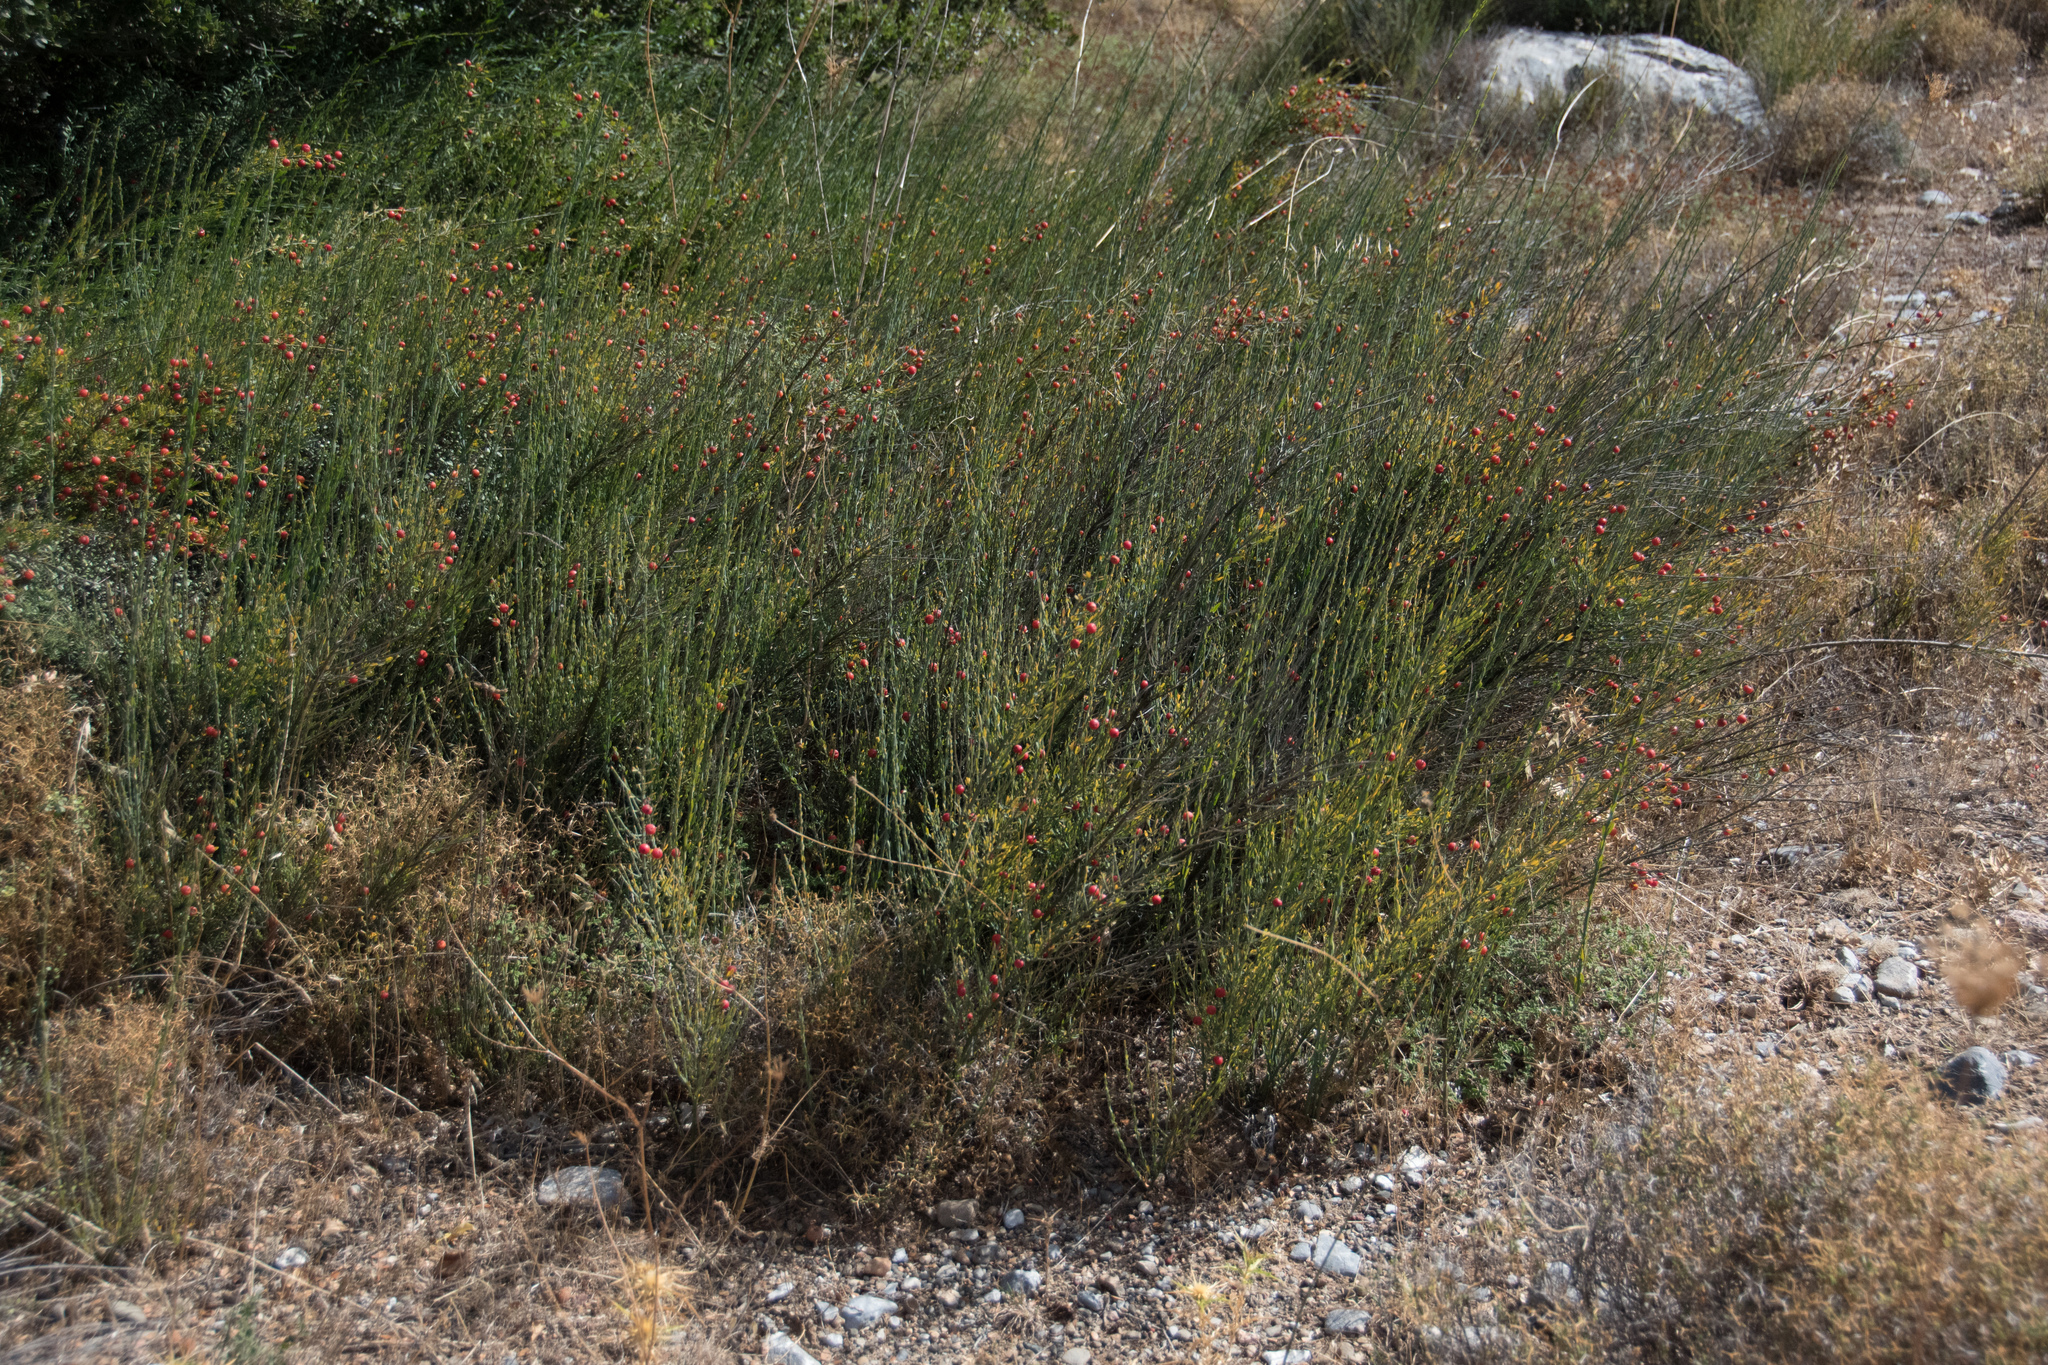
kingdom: Plantae
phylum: Tracheophyta
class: Magnoliopsida
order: Santalales
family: Santalaceae
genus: Osyris
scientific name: Osyris alba
